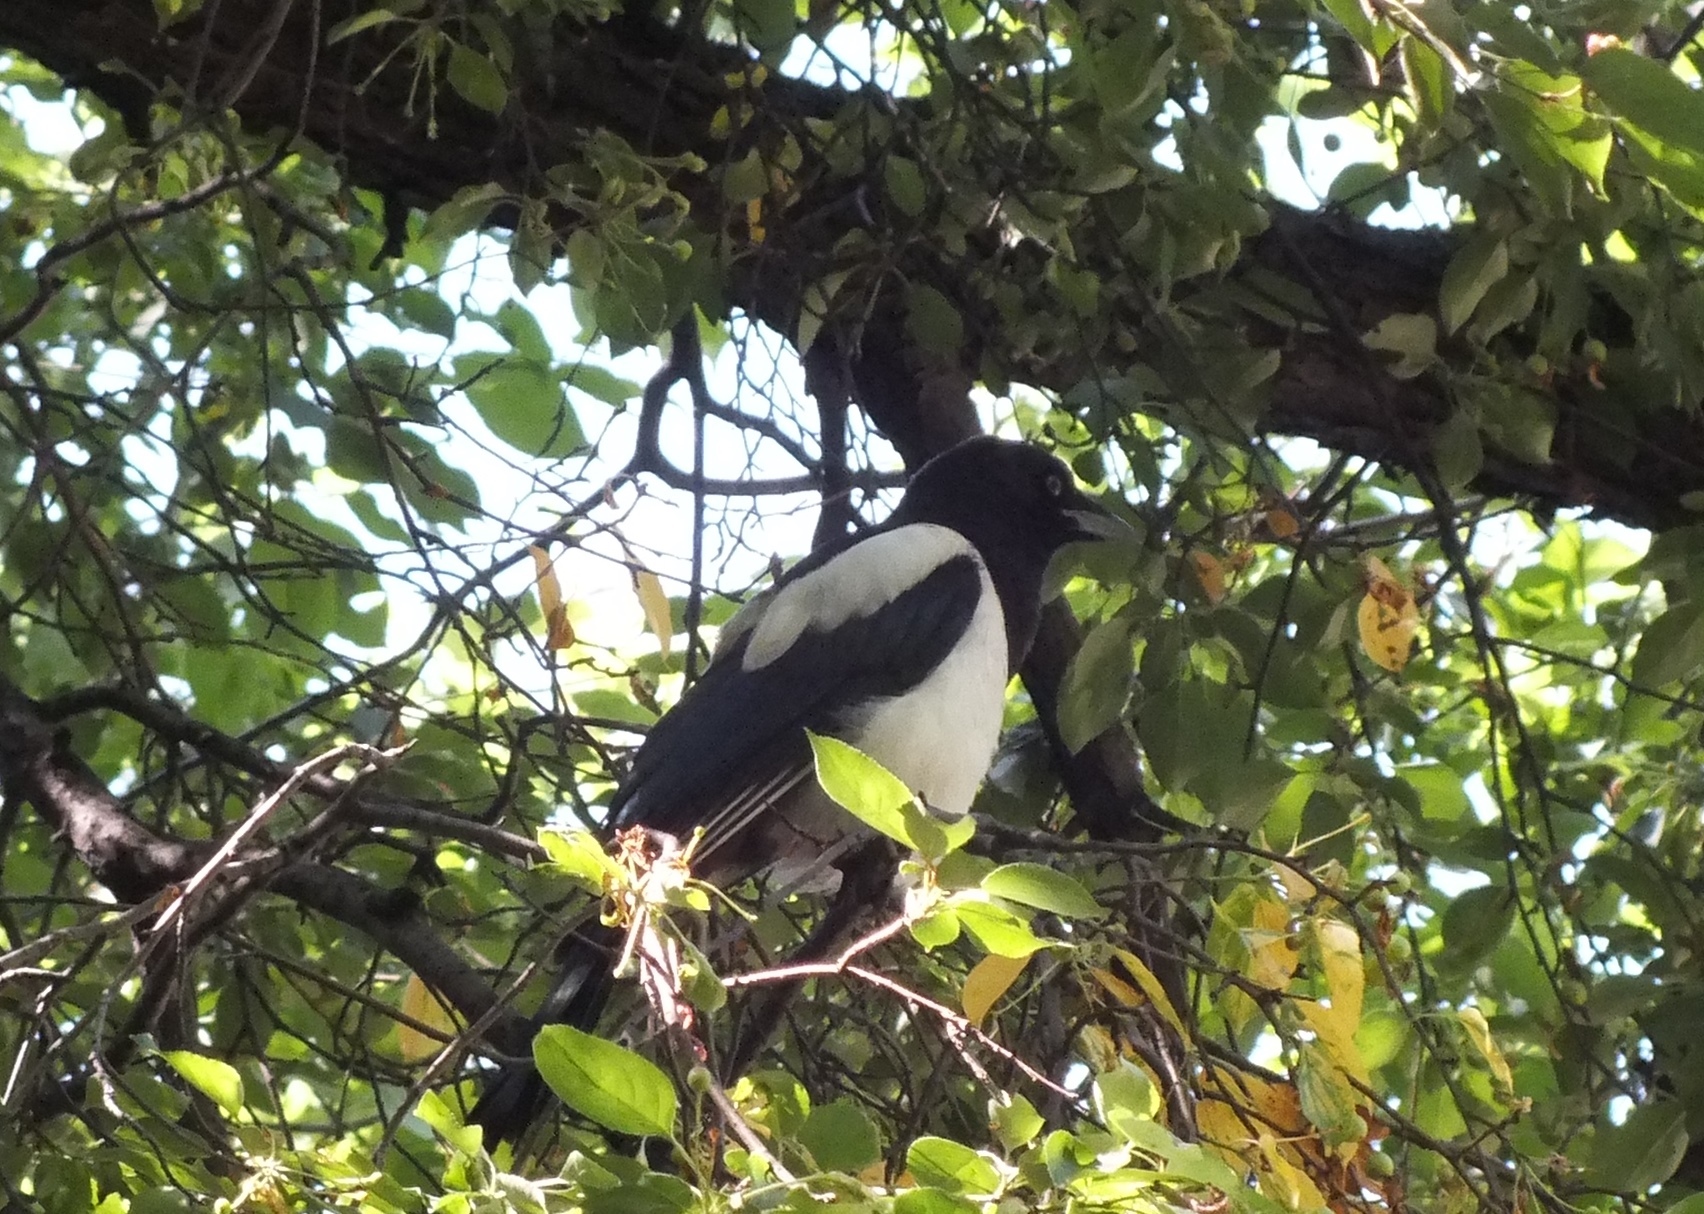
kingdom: Animalia
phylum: Chordata
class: Aves
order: Passeriformes
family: Corvidae
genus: Pica
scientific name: Pica pica
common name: Eurasian magpie
